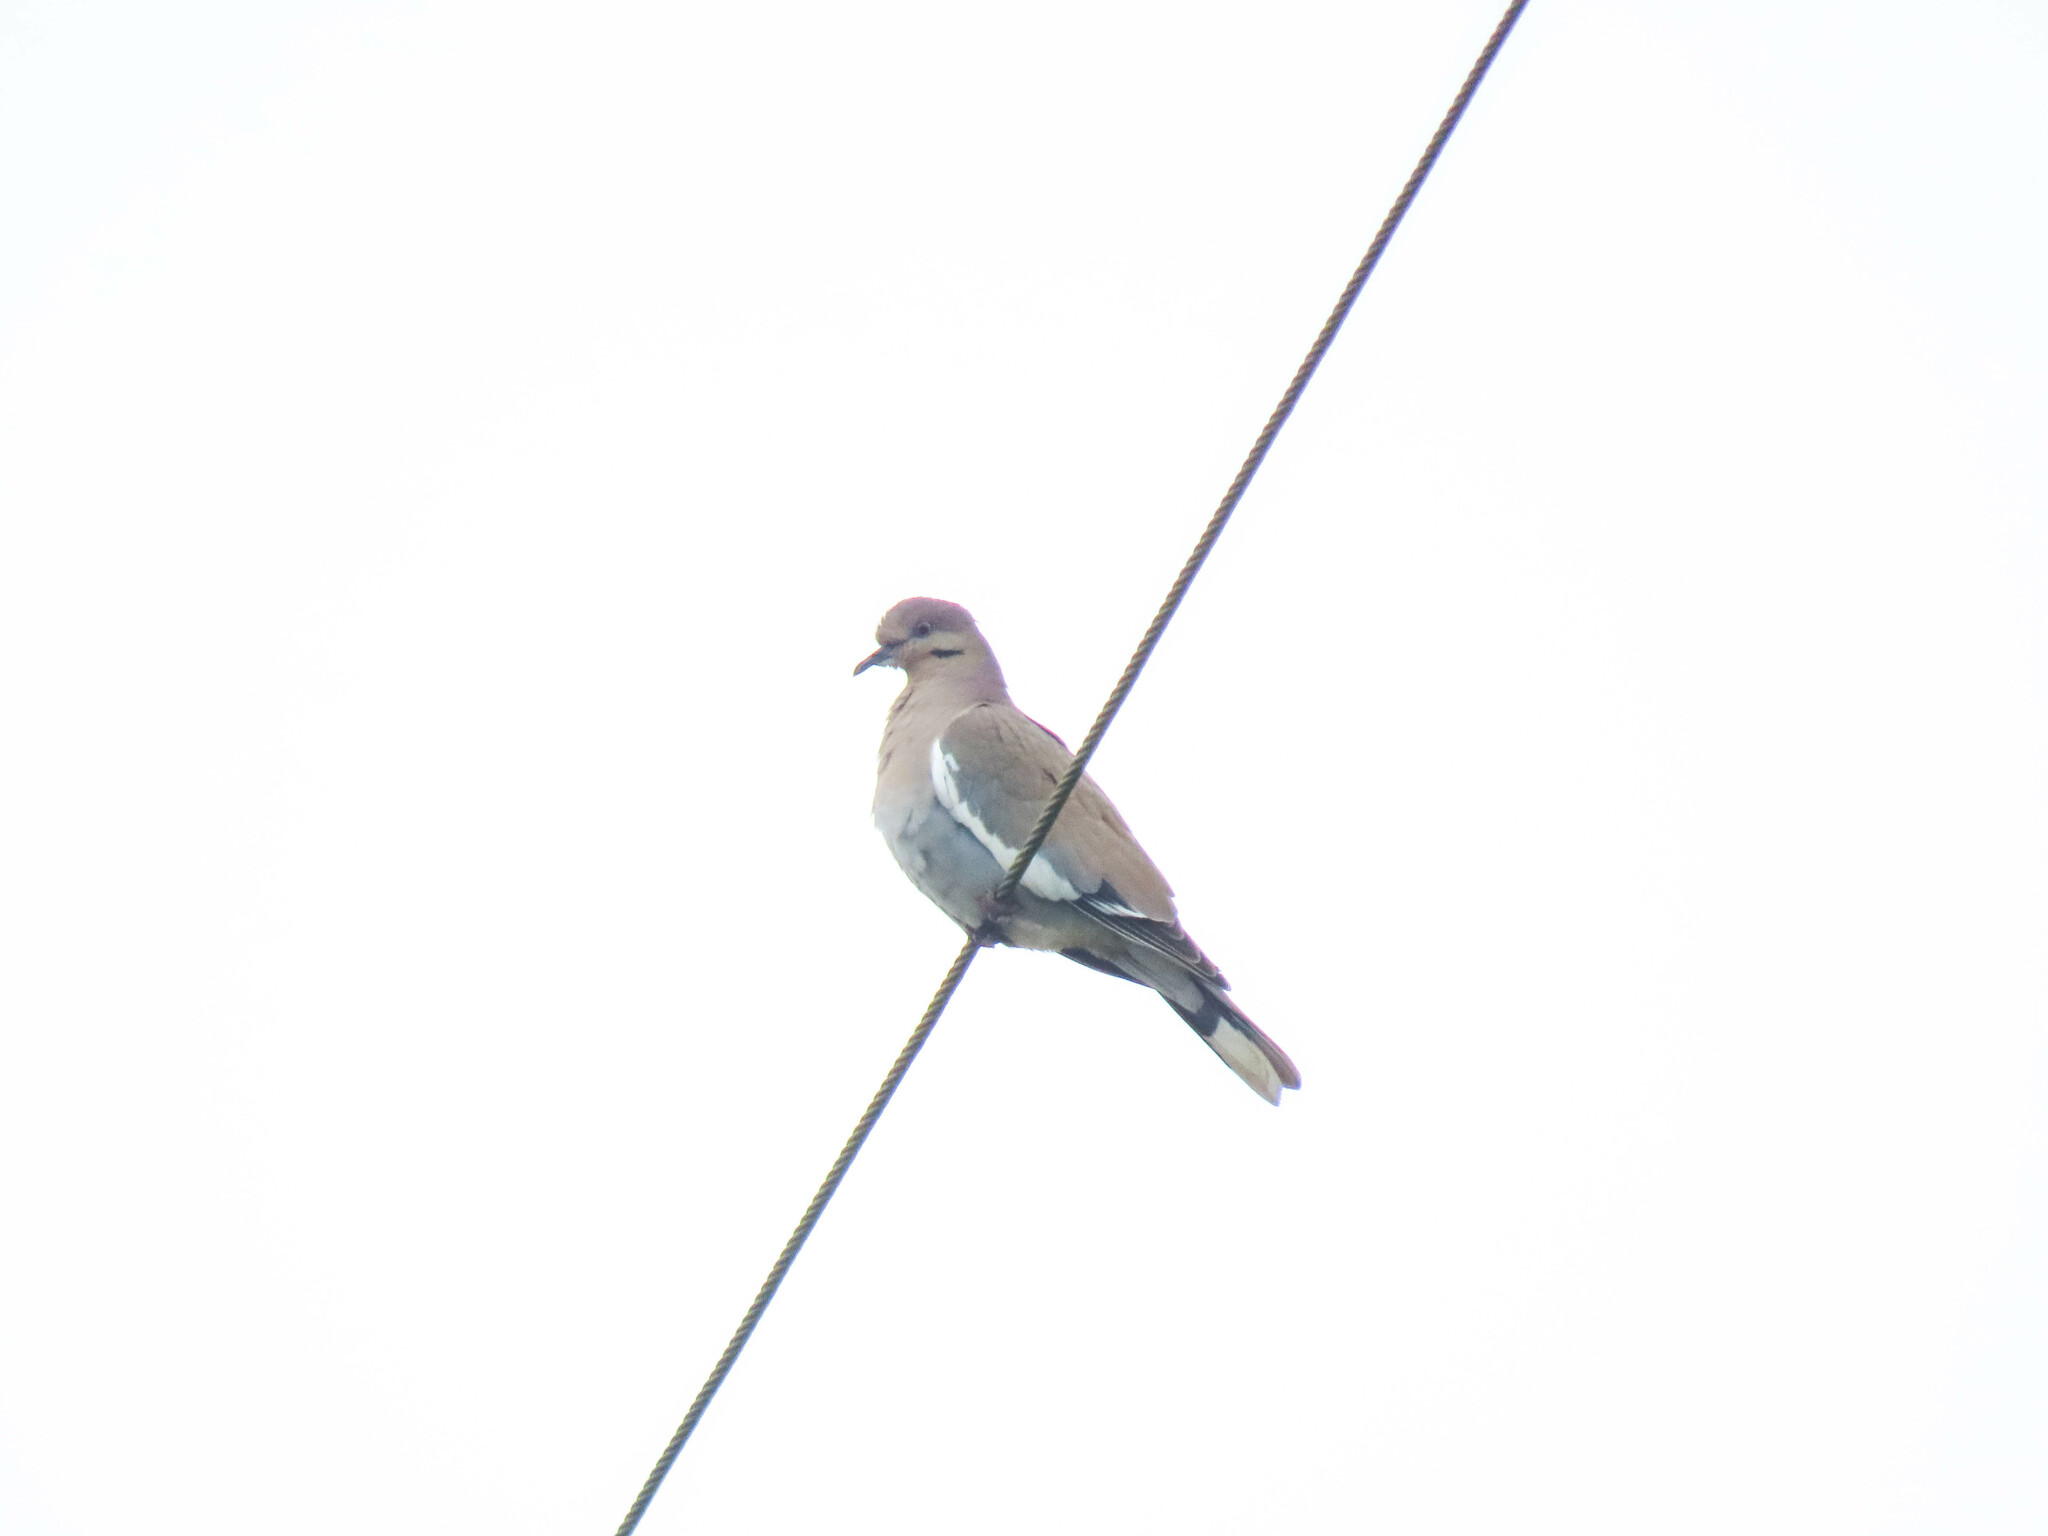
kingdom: Animalia
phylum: Chordata
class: Aves
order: Columbiformes
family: Columbidae
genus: Zenaida
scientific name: Zenaida asiatica
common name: White-winged dove
